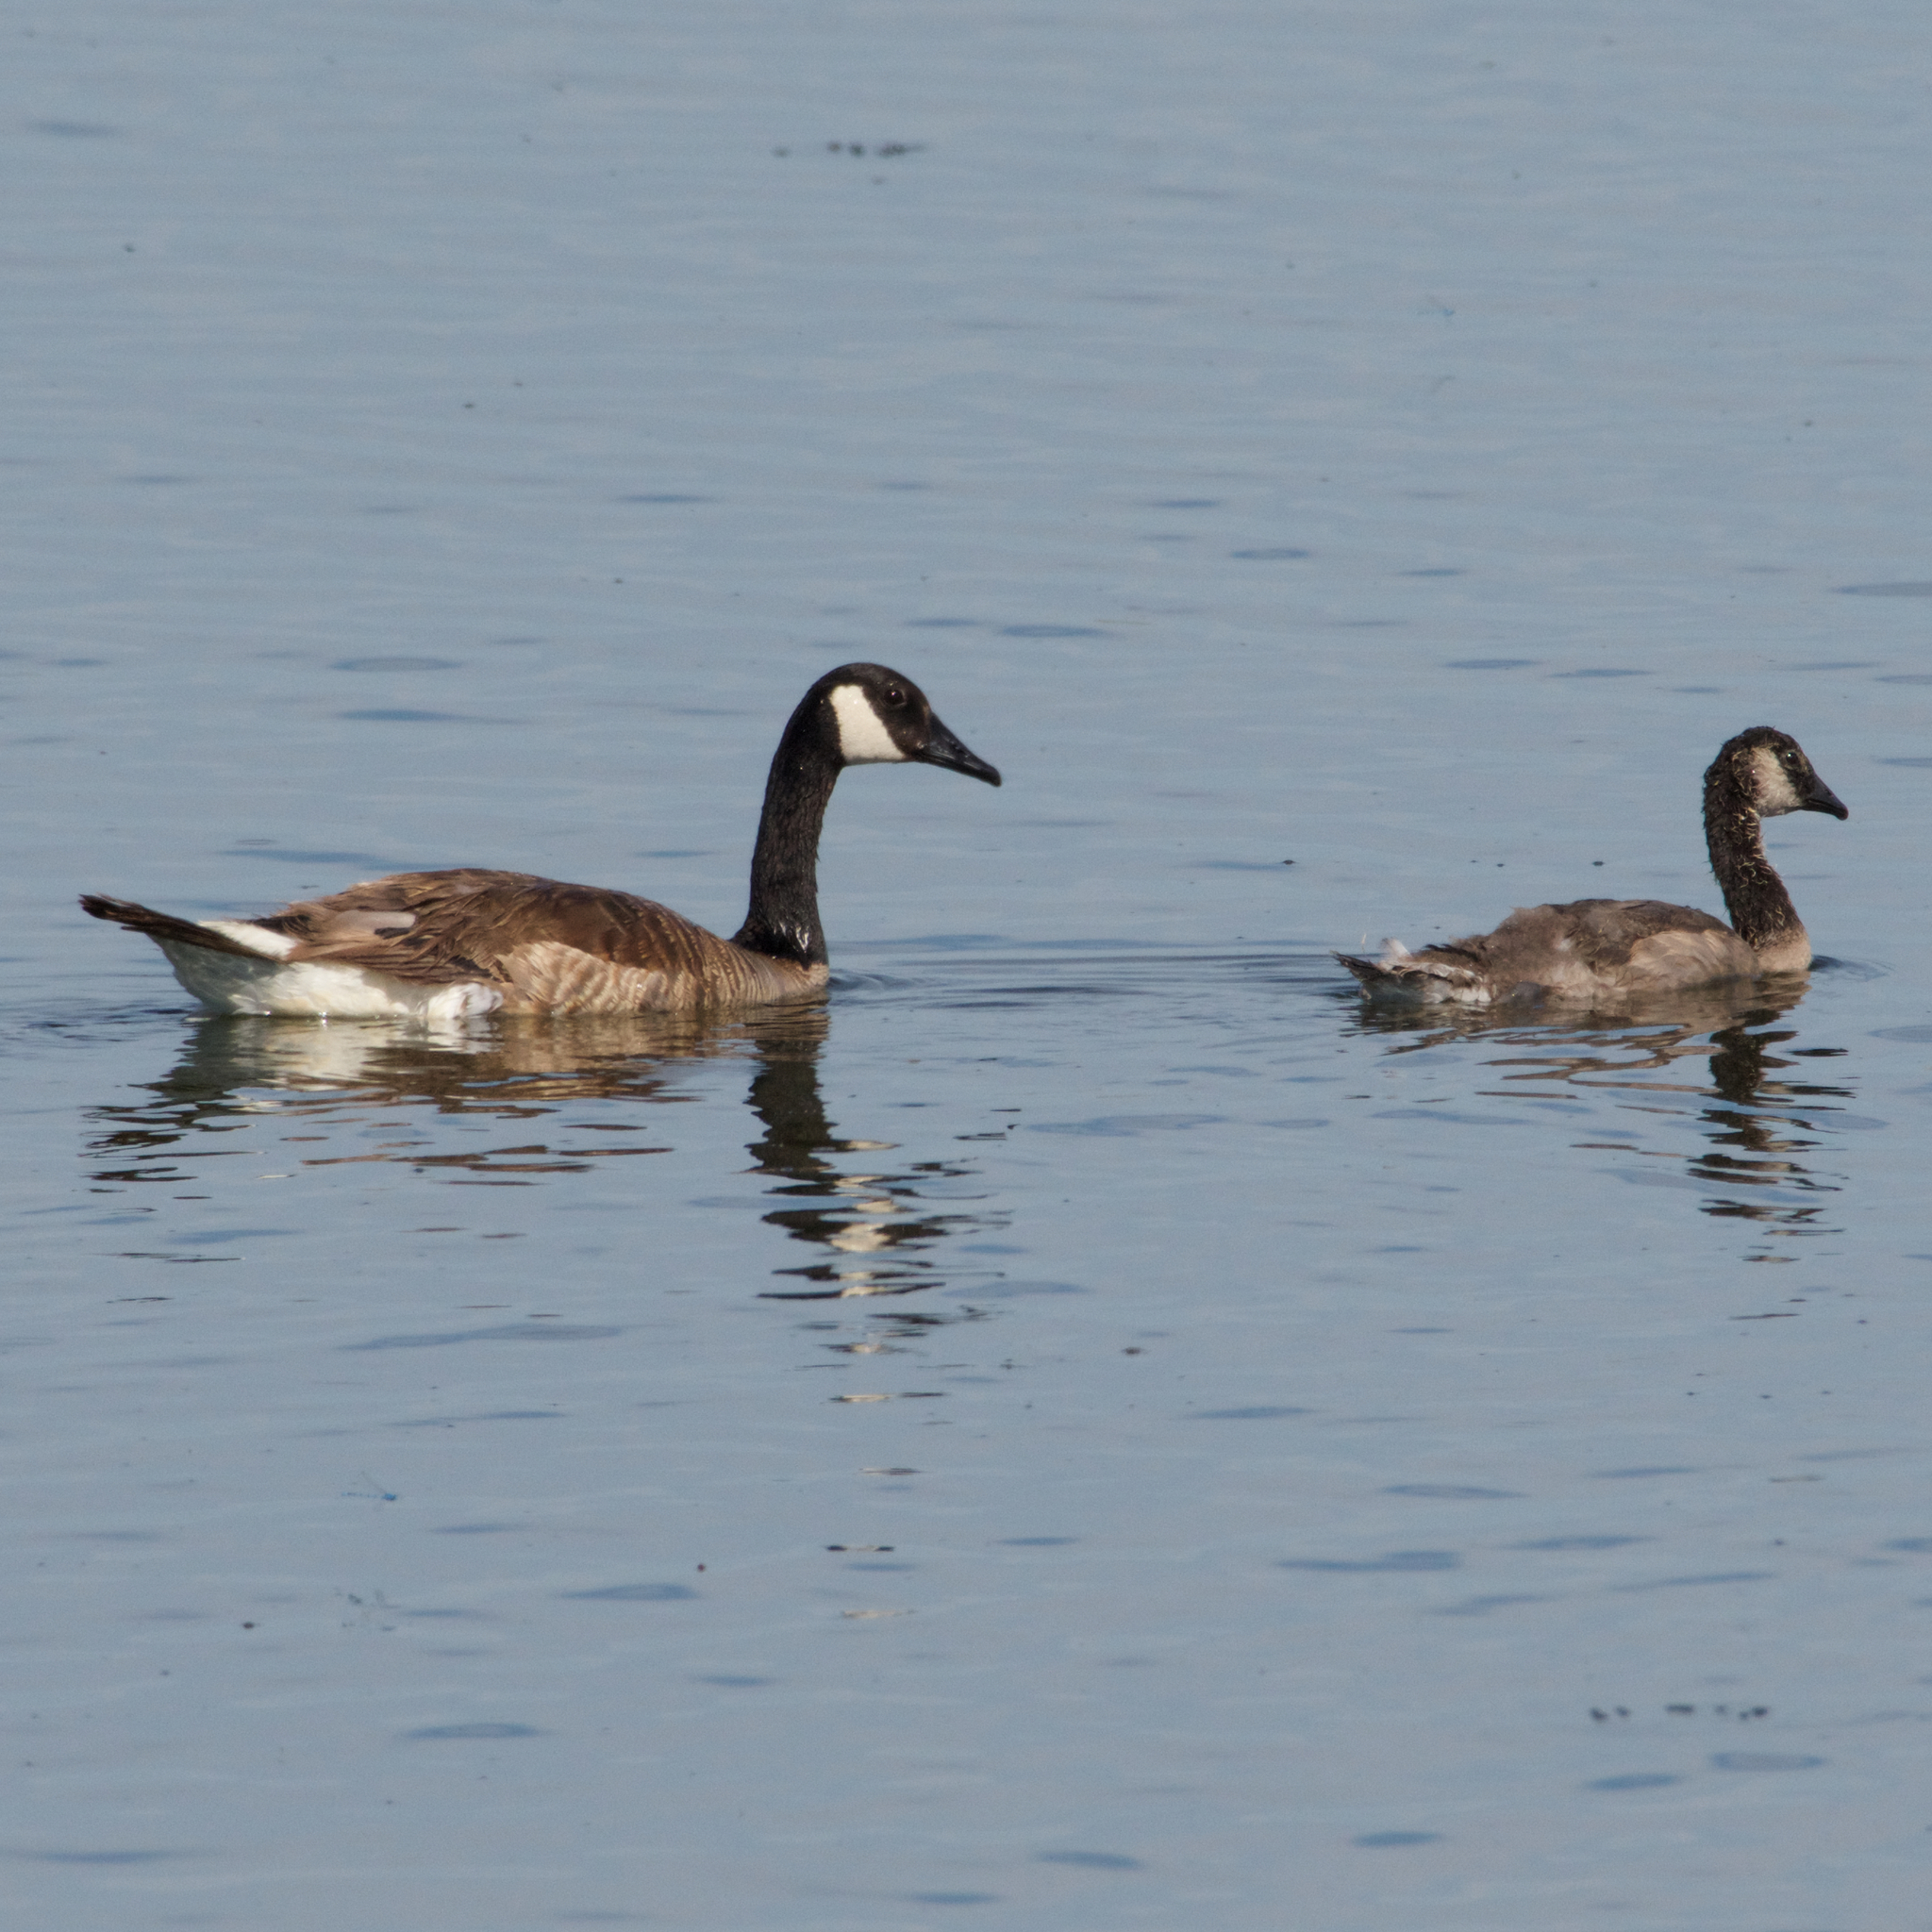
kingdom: Animalia
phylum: Chordata
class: Aves
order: Anseriformes
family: Anatidae
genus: Branta
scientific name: Branta canadensis
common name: Canada goose
